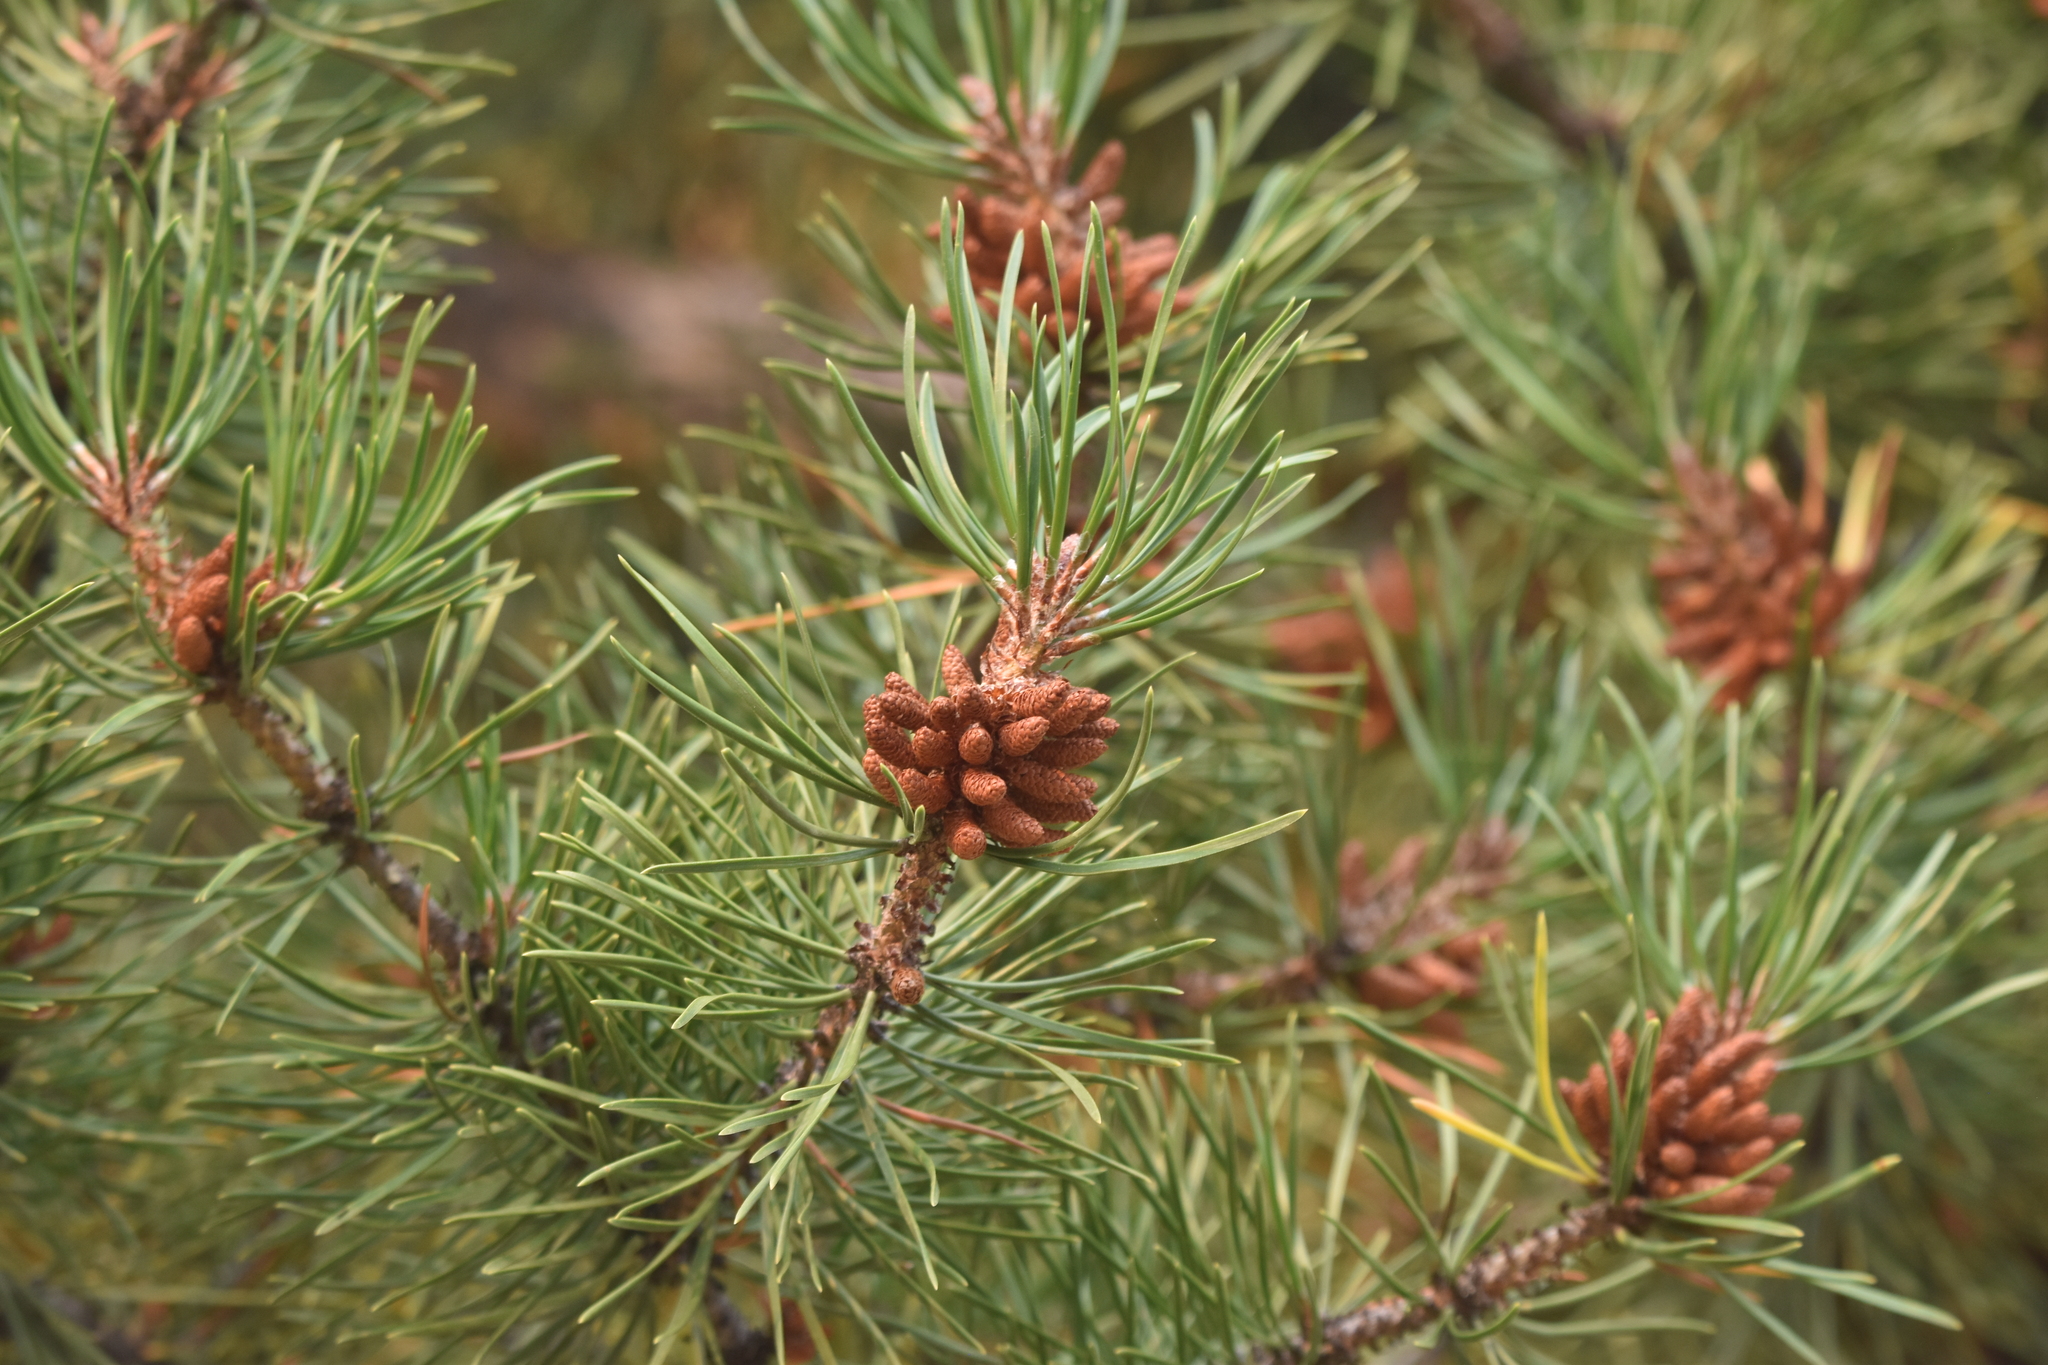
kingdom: Plantae
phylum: Tracheophyta
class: Pinopsida
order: Pinales
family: Pinaceae
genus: Pinus
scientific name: Pinus contorta
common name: Lodgepole pine
